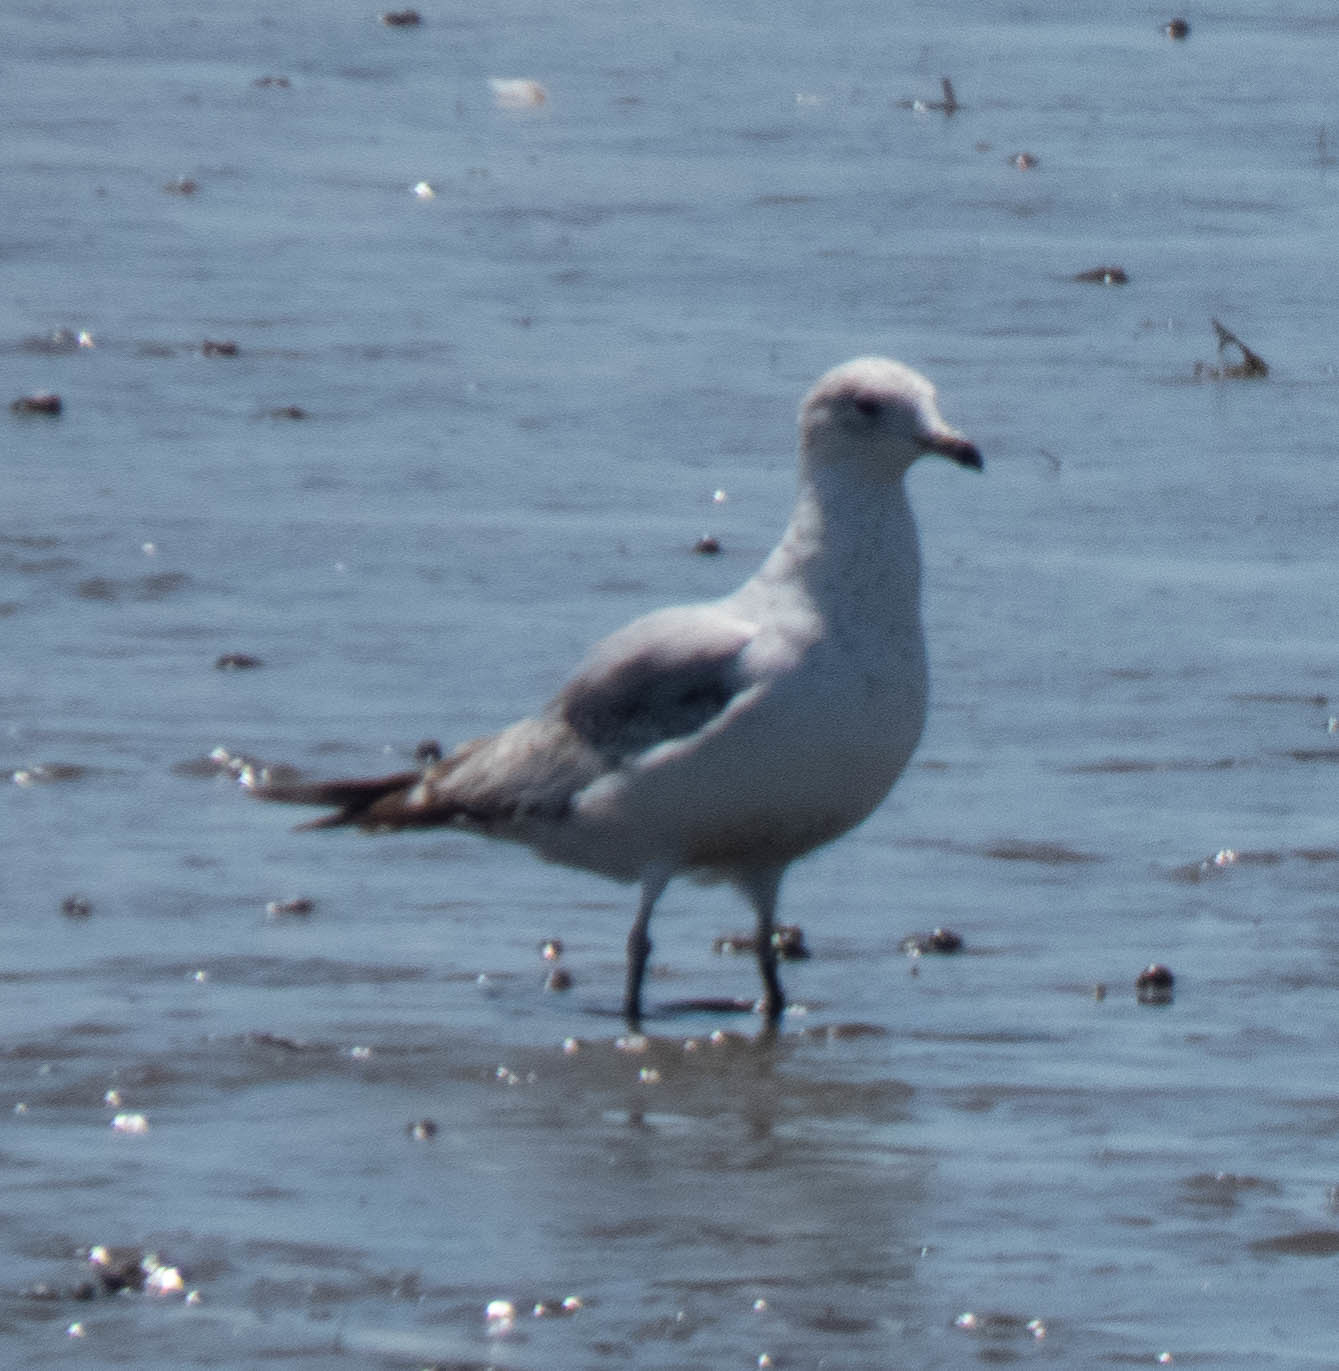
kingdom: Animalia
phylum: Chordata
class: Aves
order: Charadriiformes
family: Laridae
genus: Larus
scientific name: Larus delawarensis
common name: Ring-billed gull
